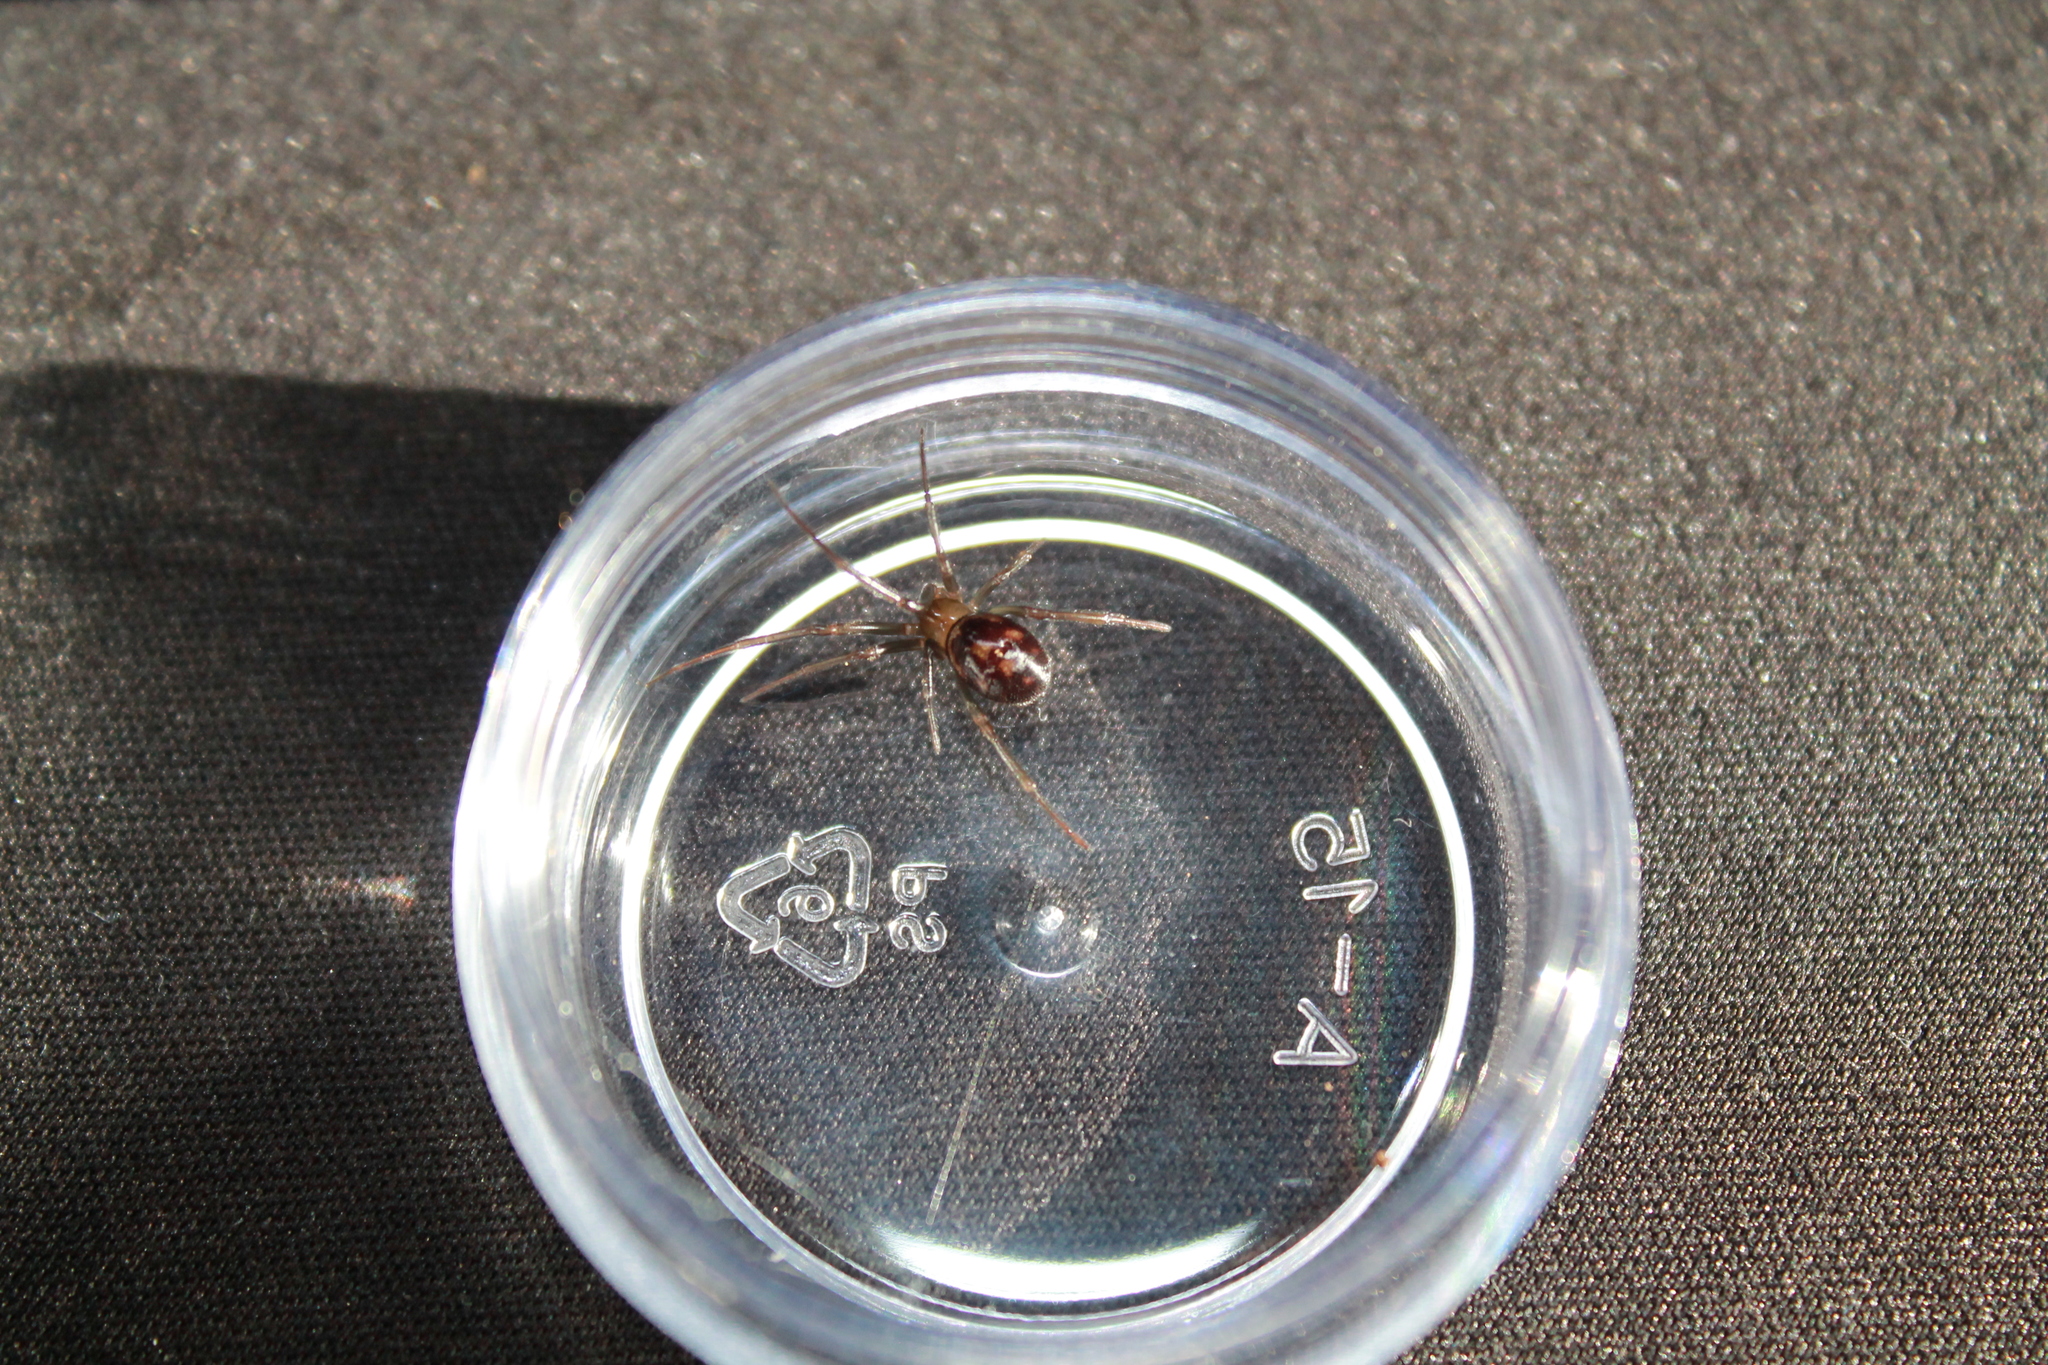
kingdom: Animalia
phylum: Arthropoda
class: Arachnida
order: Araneae
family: Theridiidae
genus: Steatoda
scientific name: Steatoda grossa
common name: False black widow
